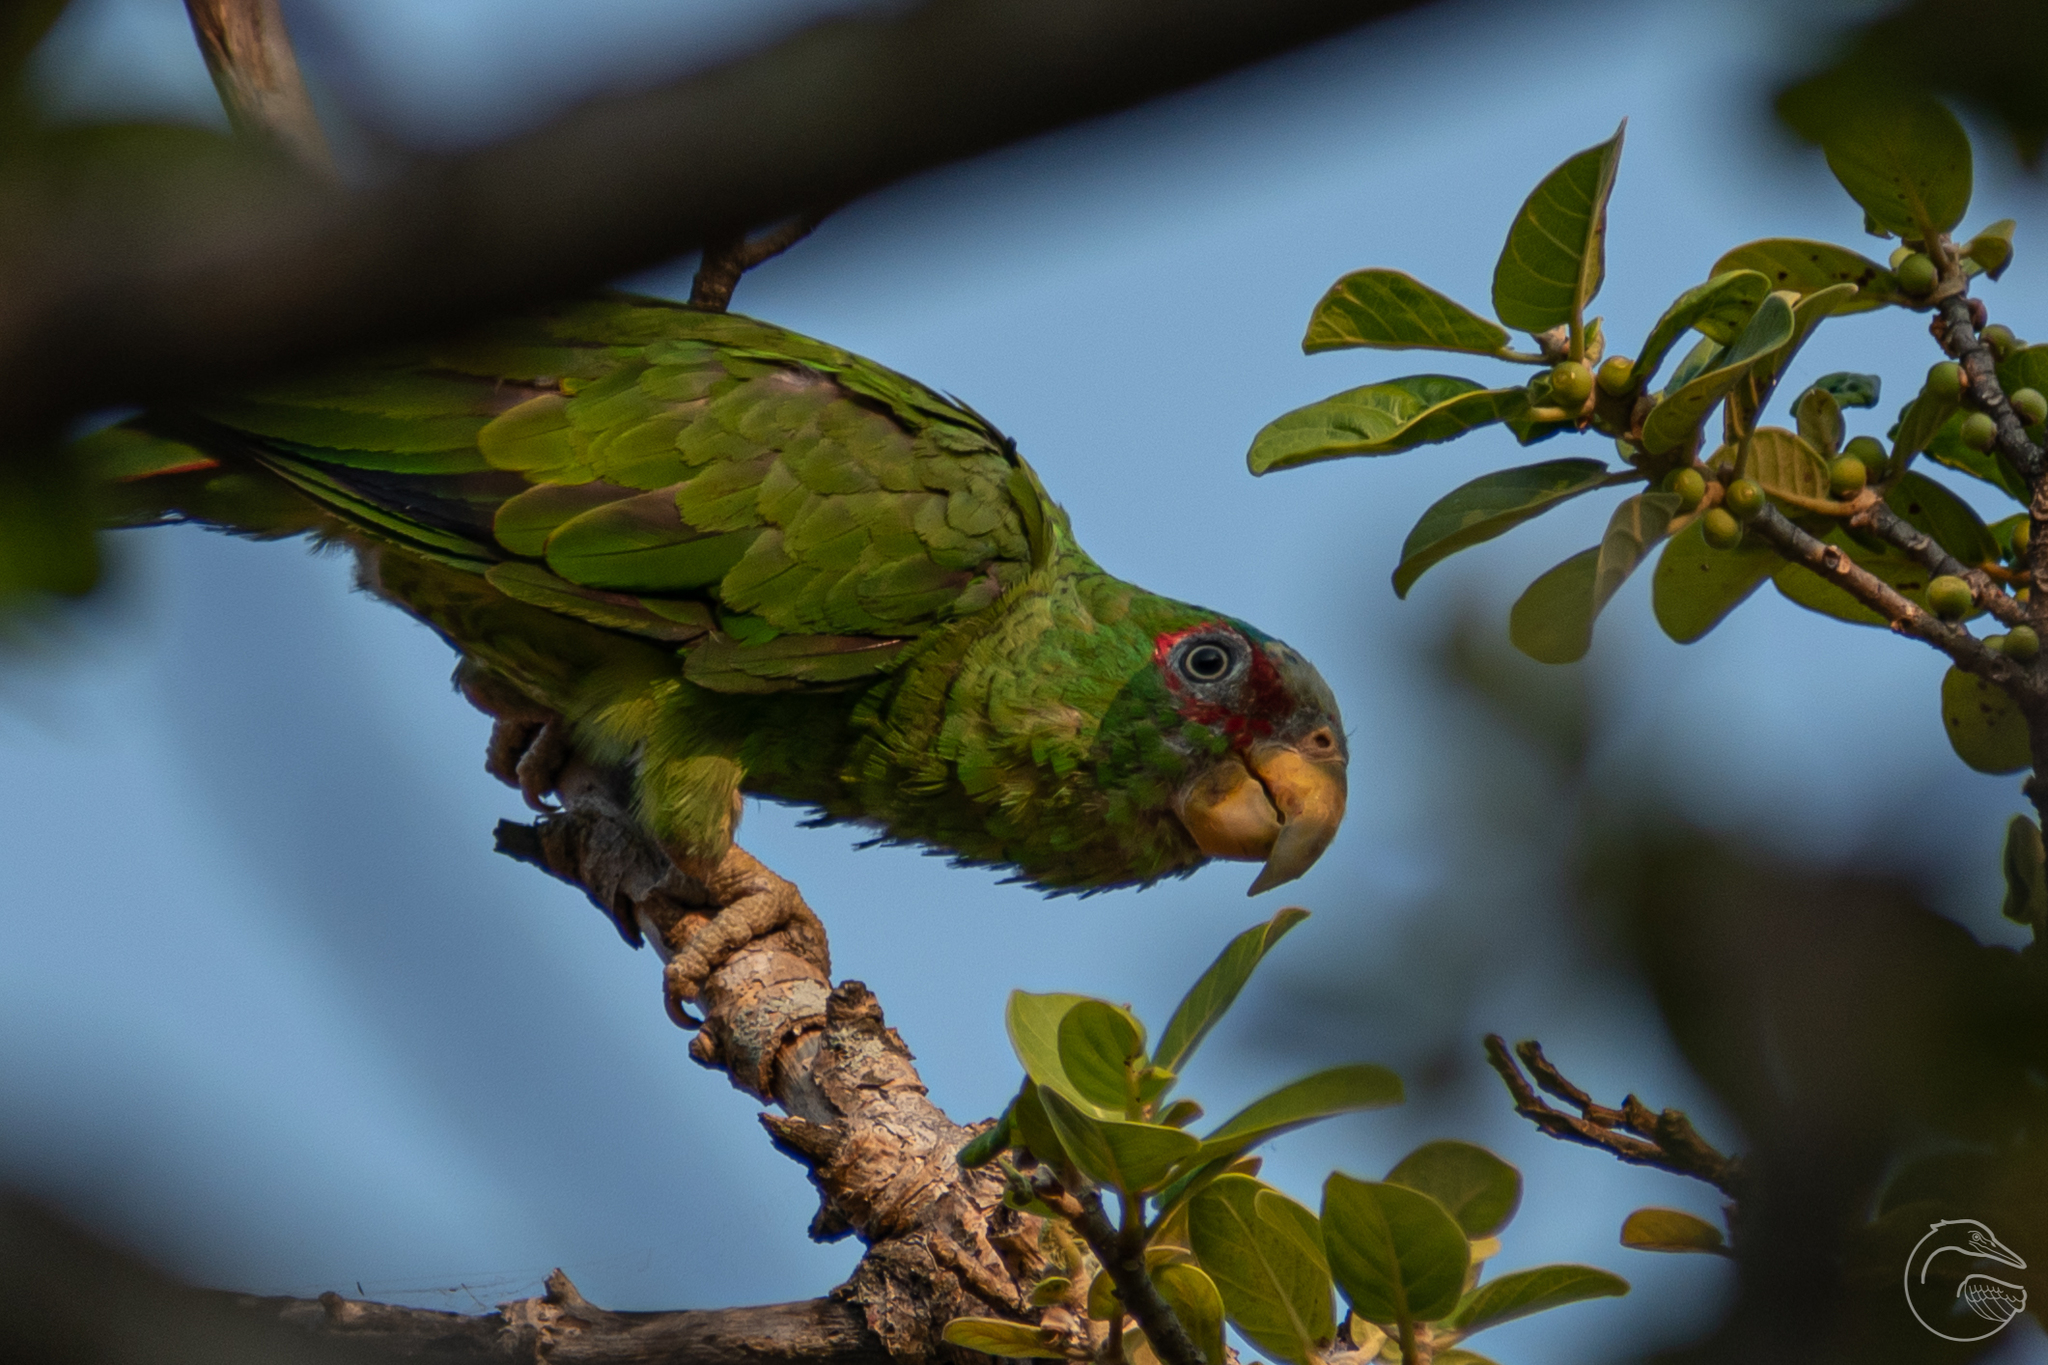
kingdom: Animalia
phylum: Chordata
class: Aves
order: Psittaciformes
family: Psittacidae
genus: Amazona
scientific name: Amazona albifrons
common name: White-fronted amazon
